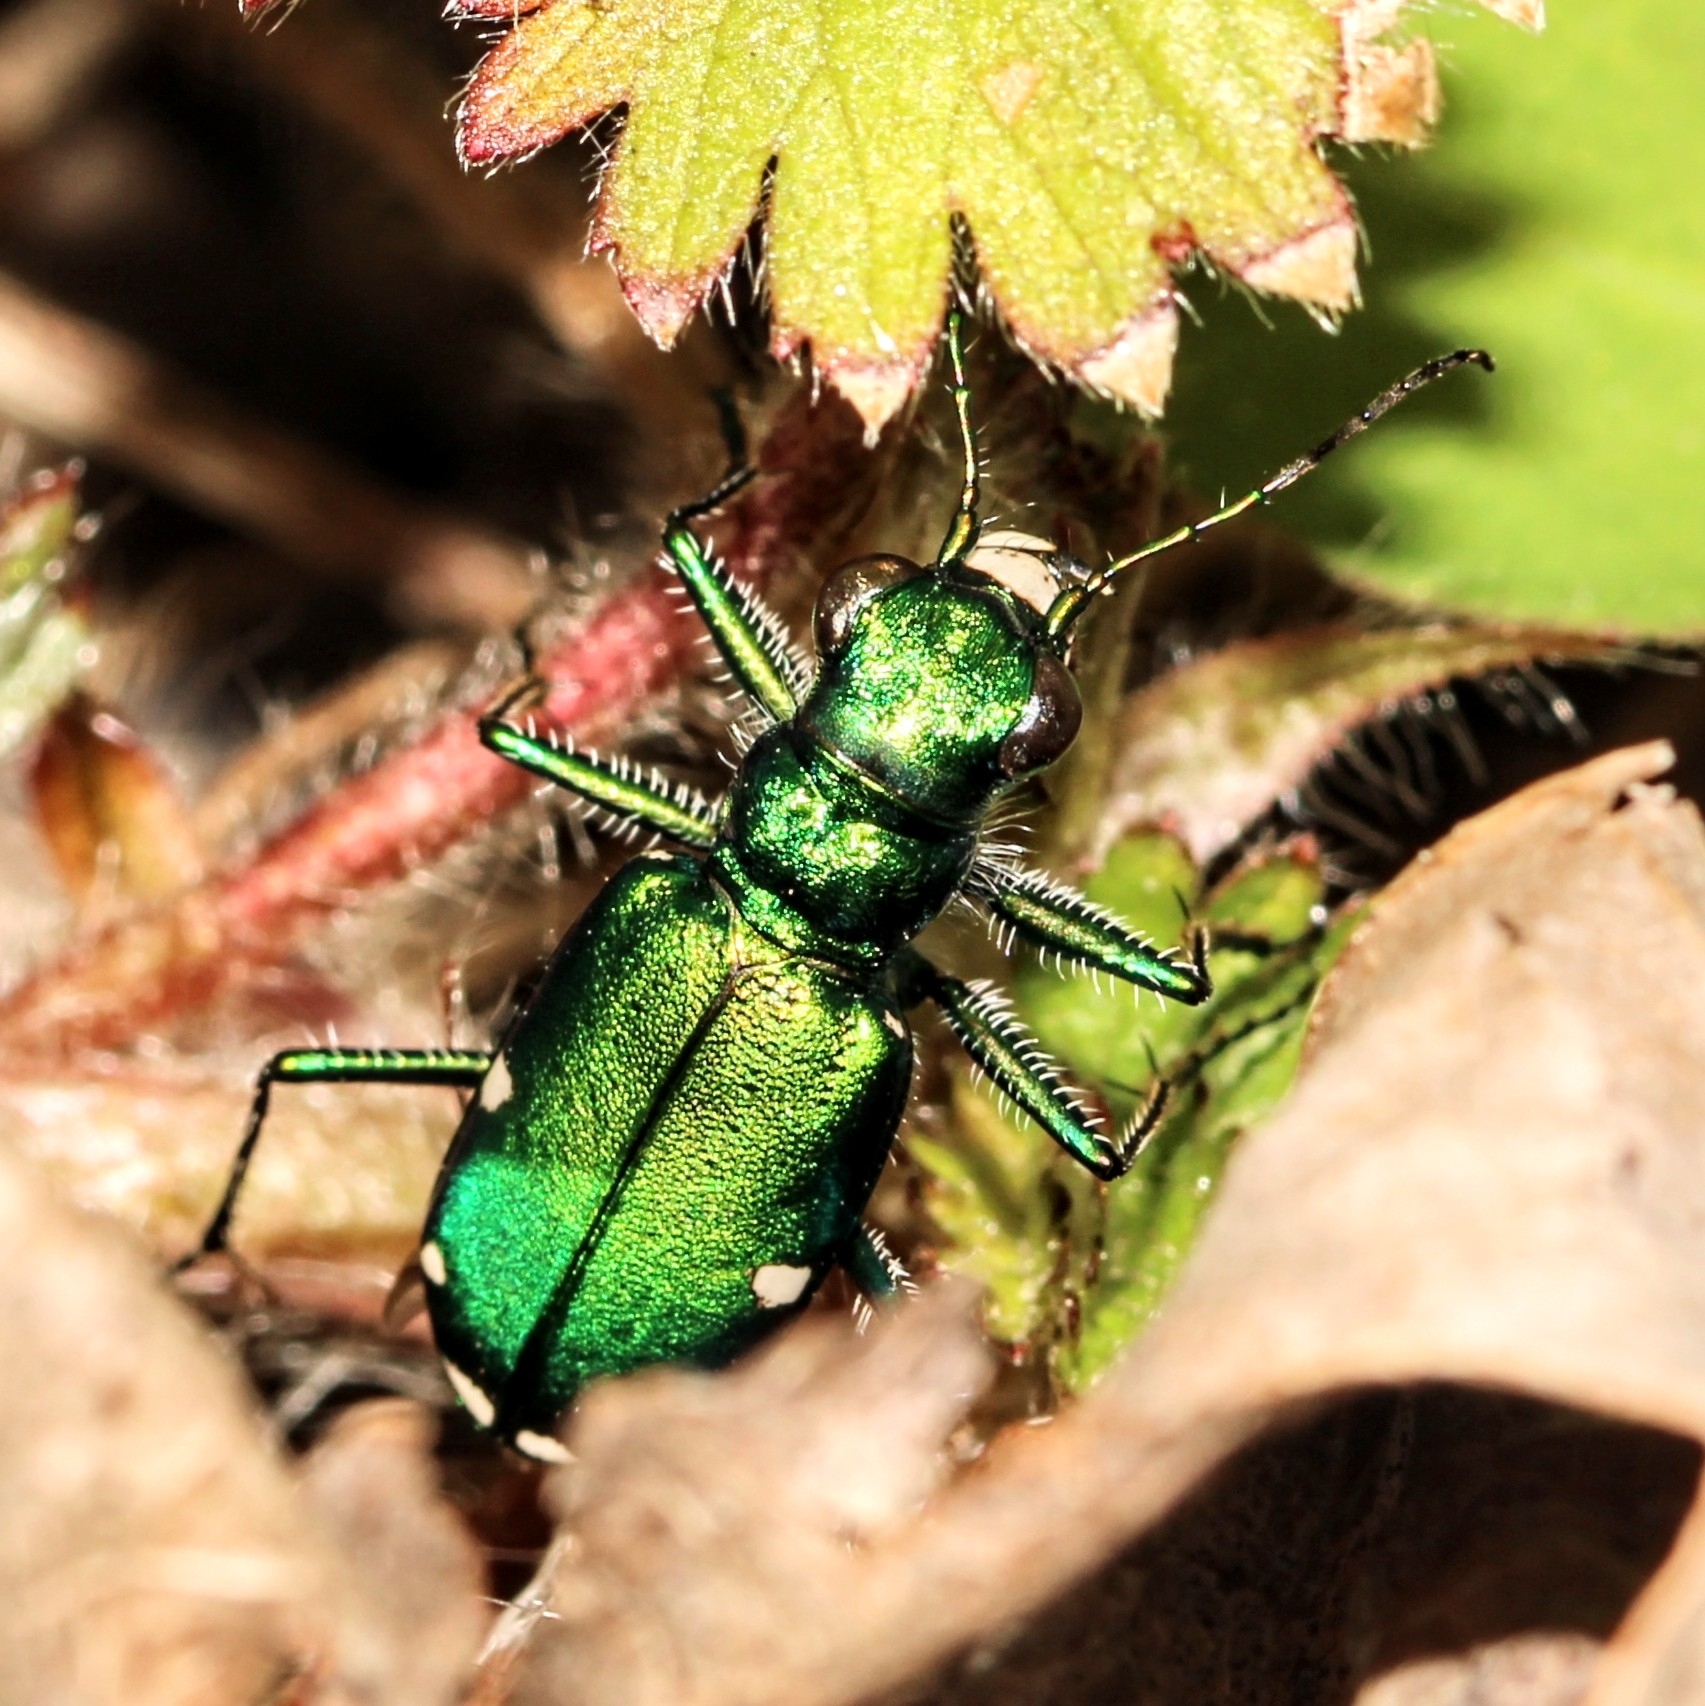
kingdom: Animalia
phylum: Arthropoda
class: Insecta
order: Coleoptera
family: Carabidae
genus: Cicindela
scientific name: Cicindela sexguttata
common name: Six-spotted tiger beetle
